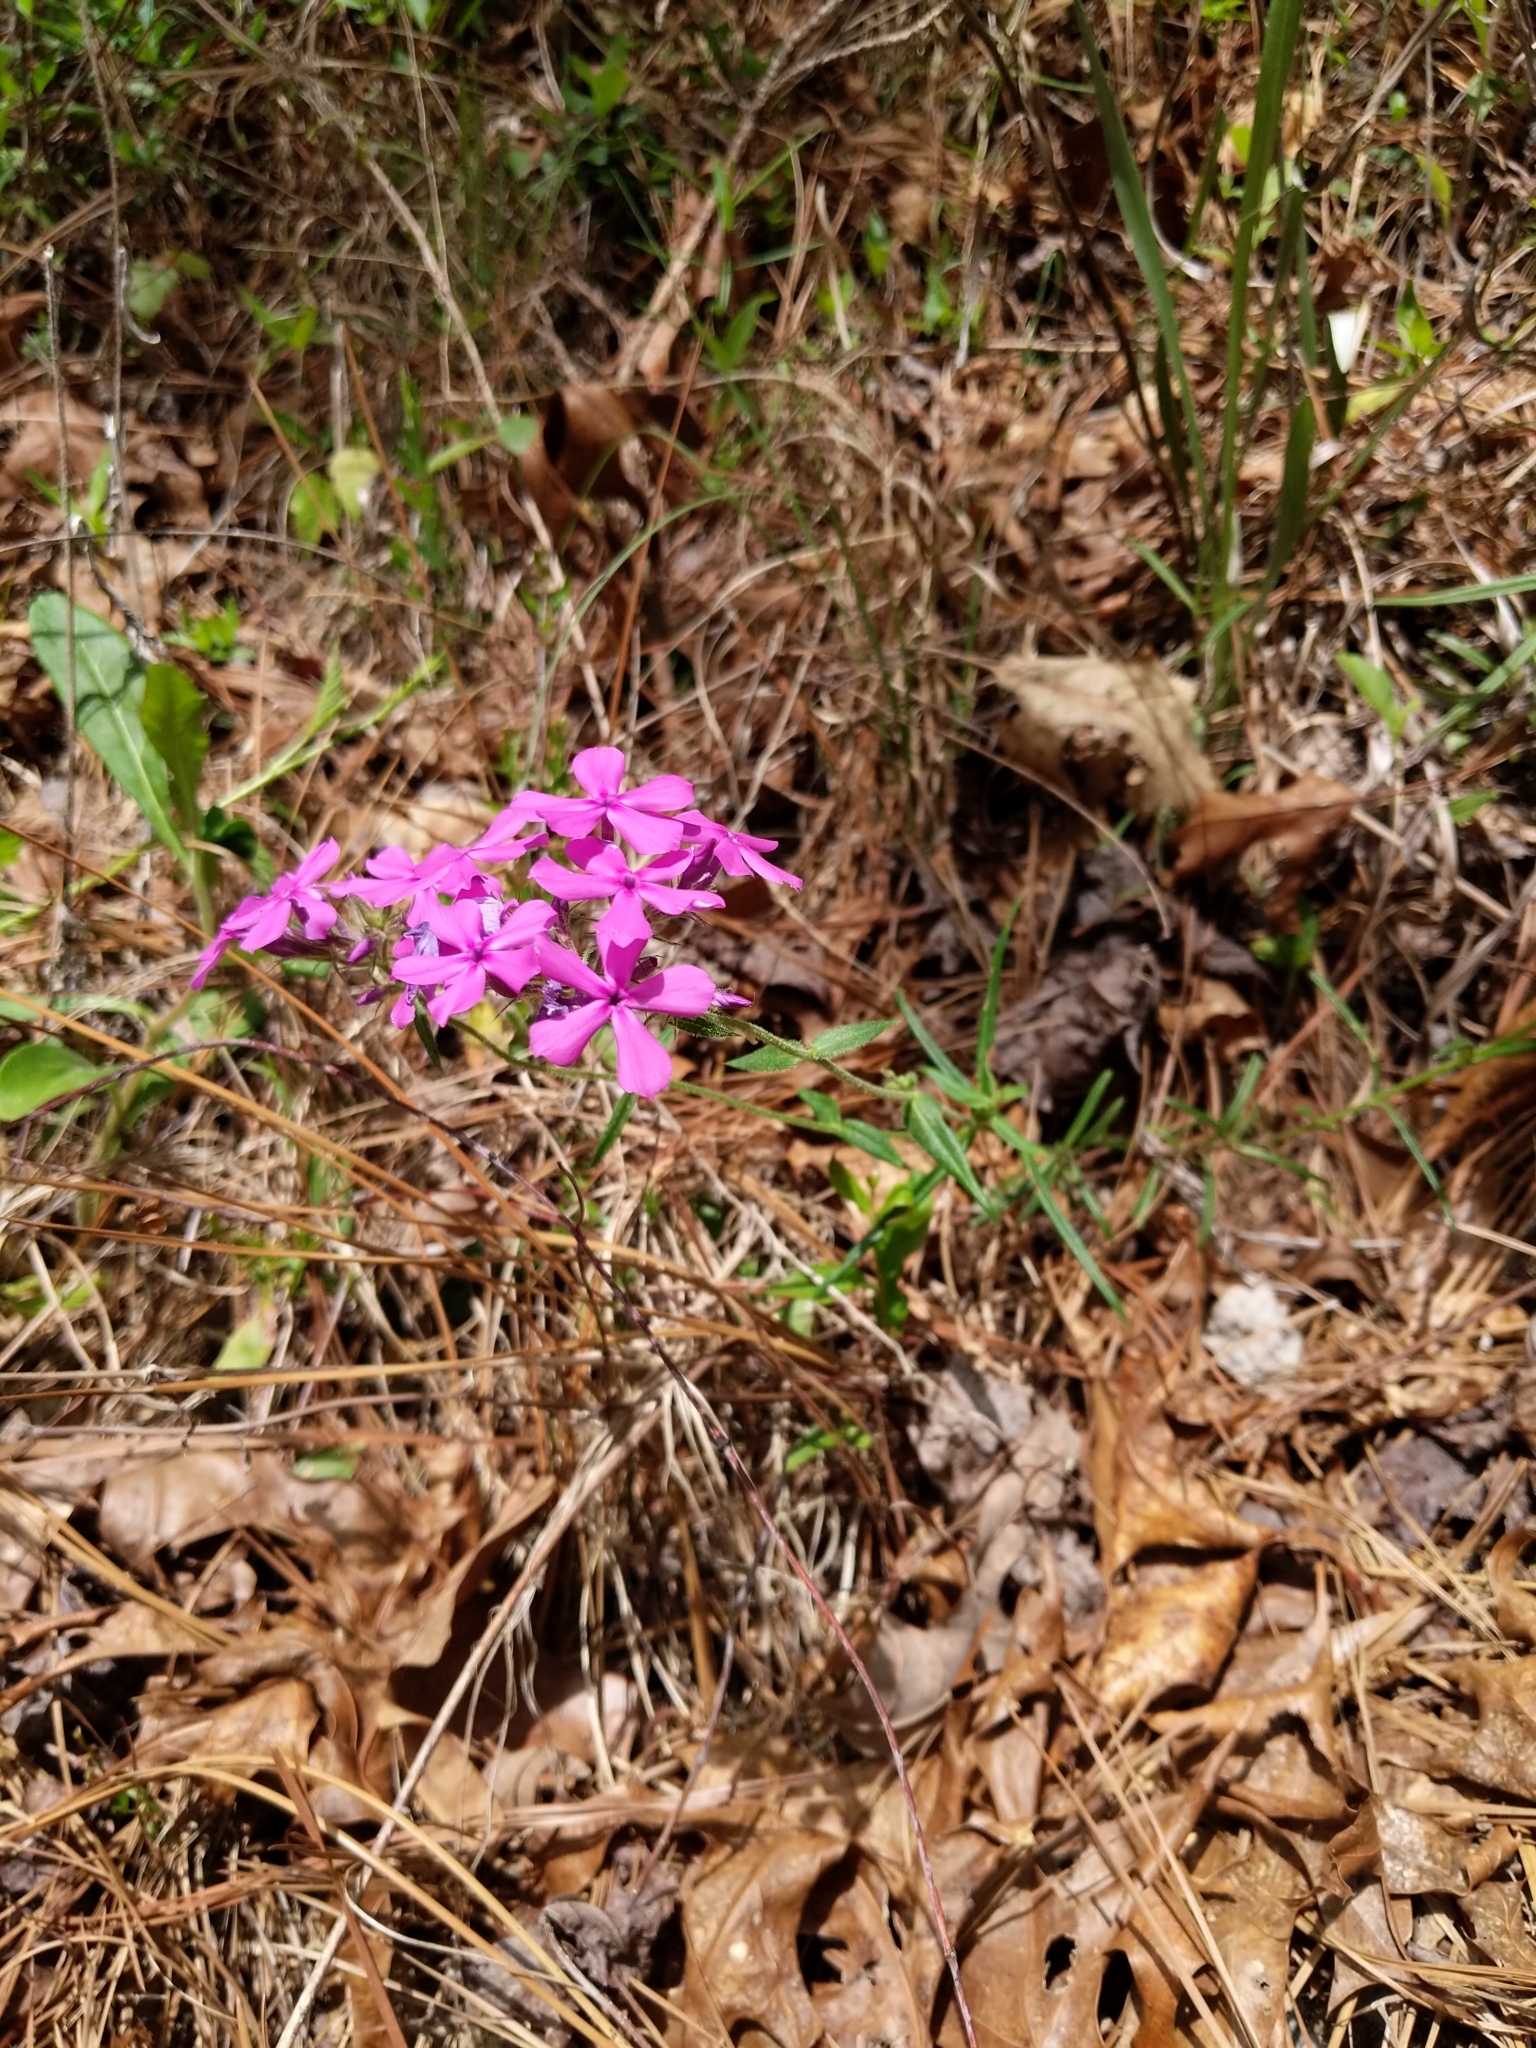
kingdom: Plantae
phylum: Tracheophyta
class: Magnoliopsida
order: Ericales
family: Polemoniaceae
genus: Phlox
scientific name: Phlox pilosa
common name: Prairie phlox
